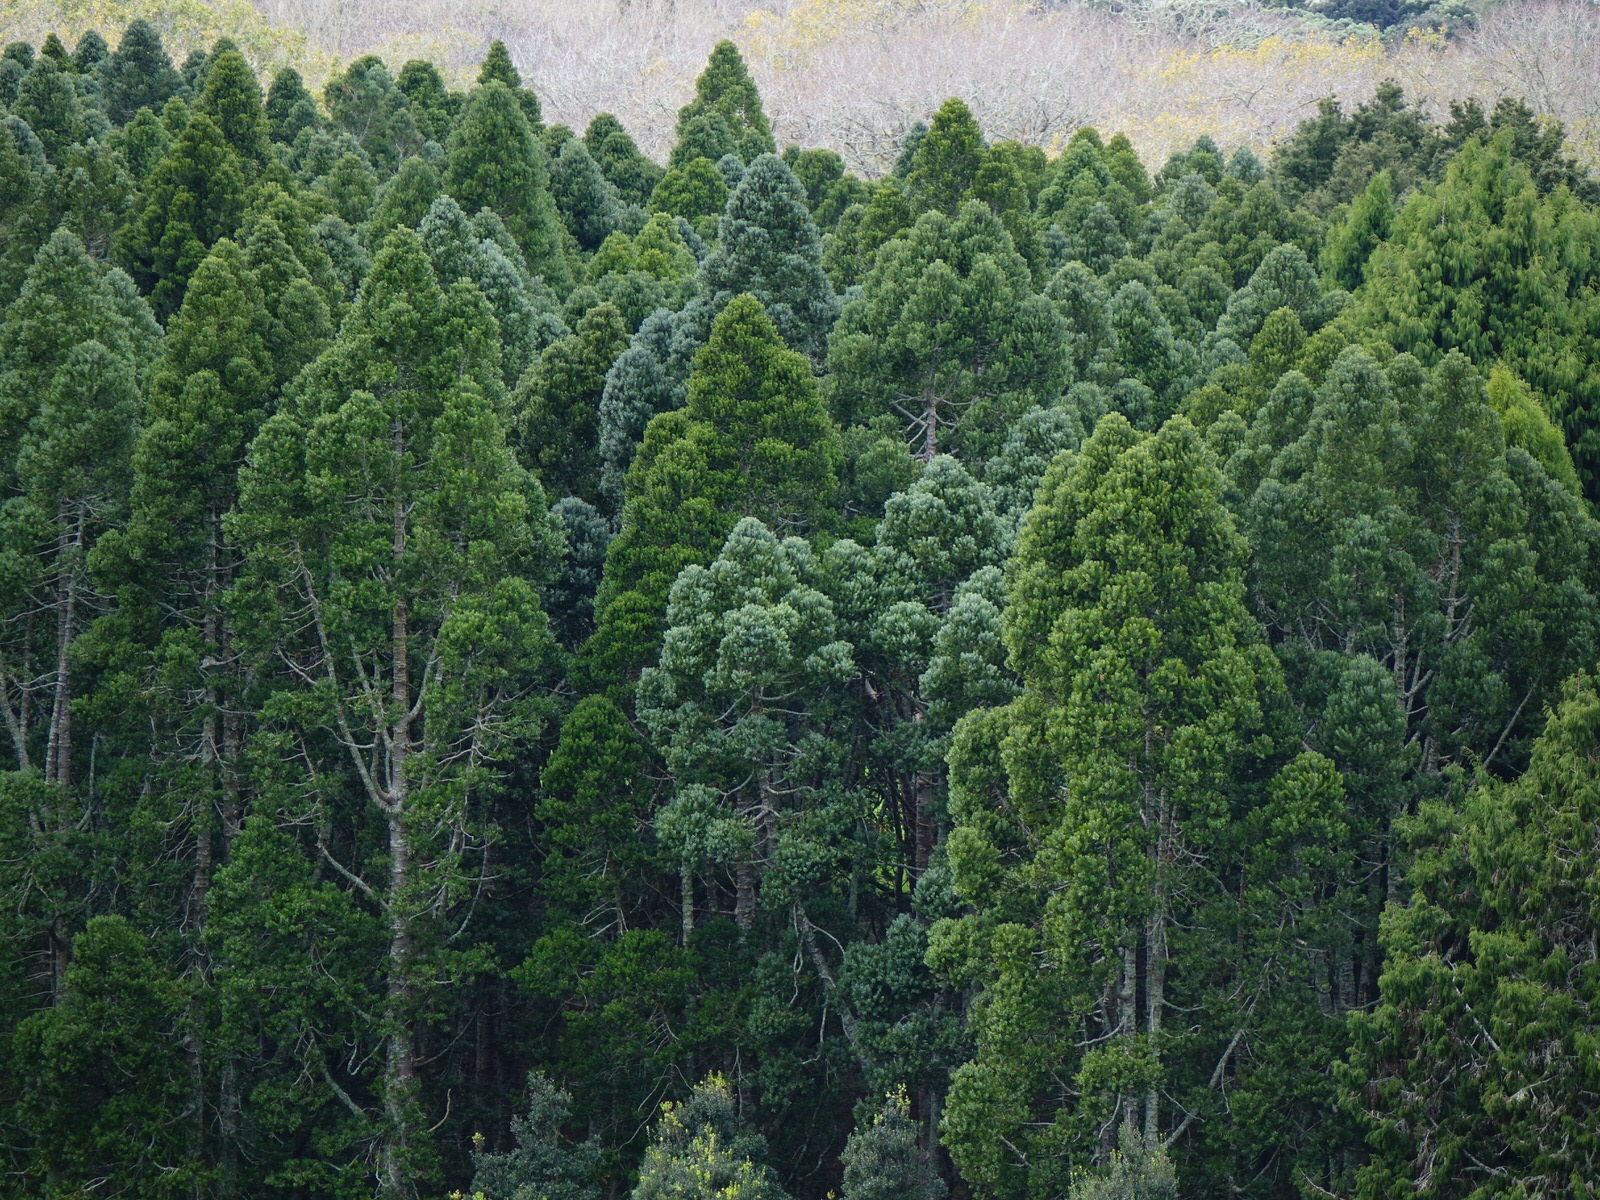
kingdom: Plantae
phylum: Tracheophyta
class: Pinopsida
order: Pinales
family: Araucariaceae
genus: Agathis
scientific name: Agathis australis
